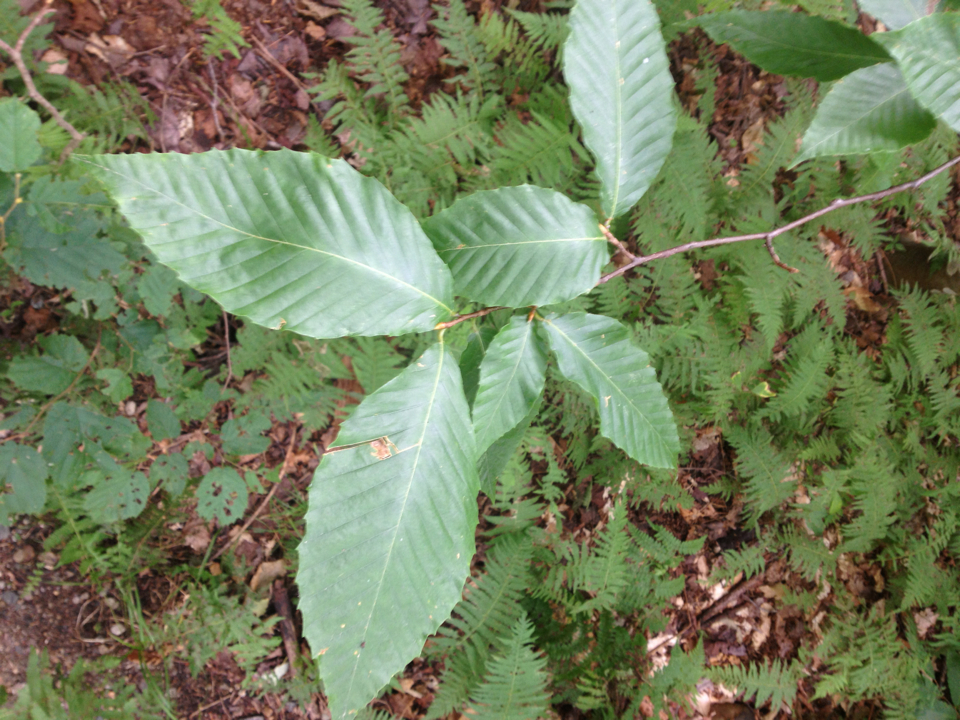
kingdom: Plantae
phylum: Tracheophyta
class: Magnoliopsida
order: Fagales
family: Fagaceae
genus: Fagus
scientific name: Fagus grandifolia
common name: American beech
